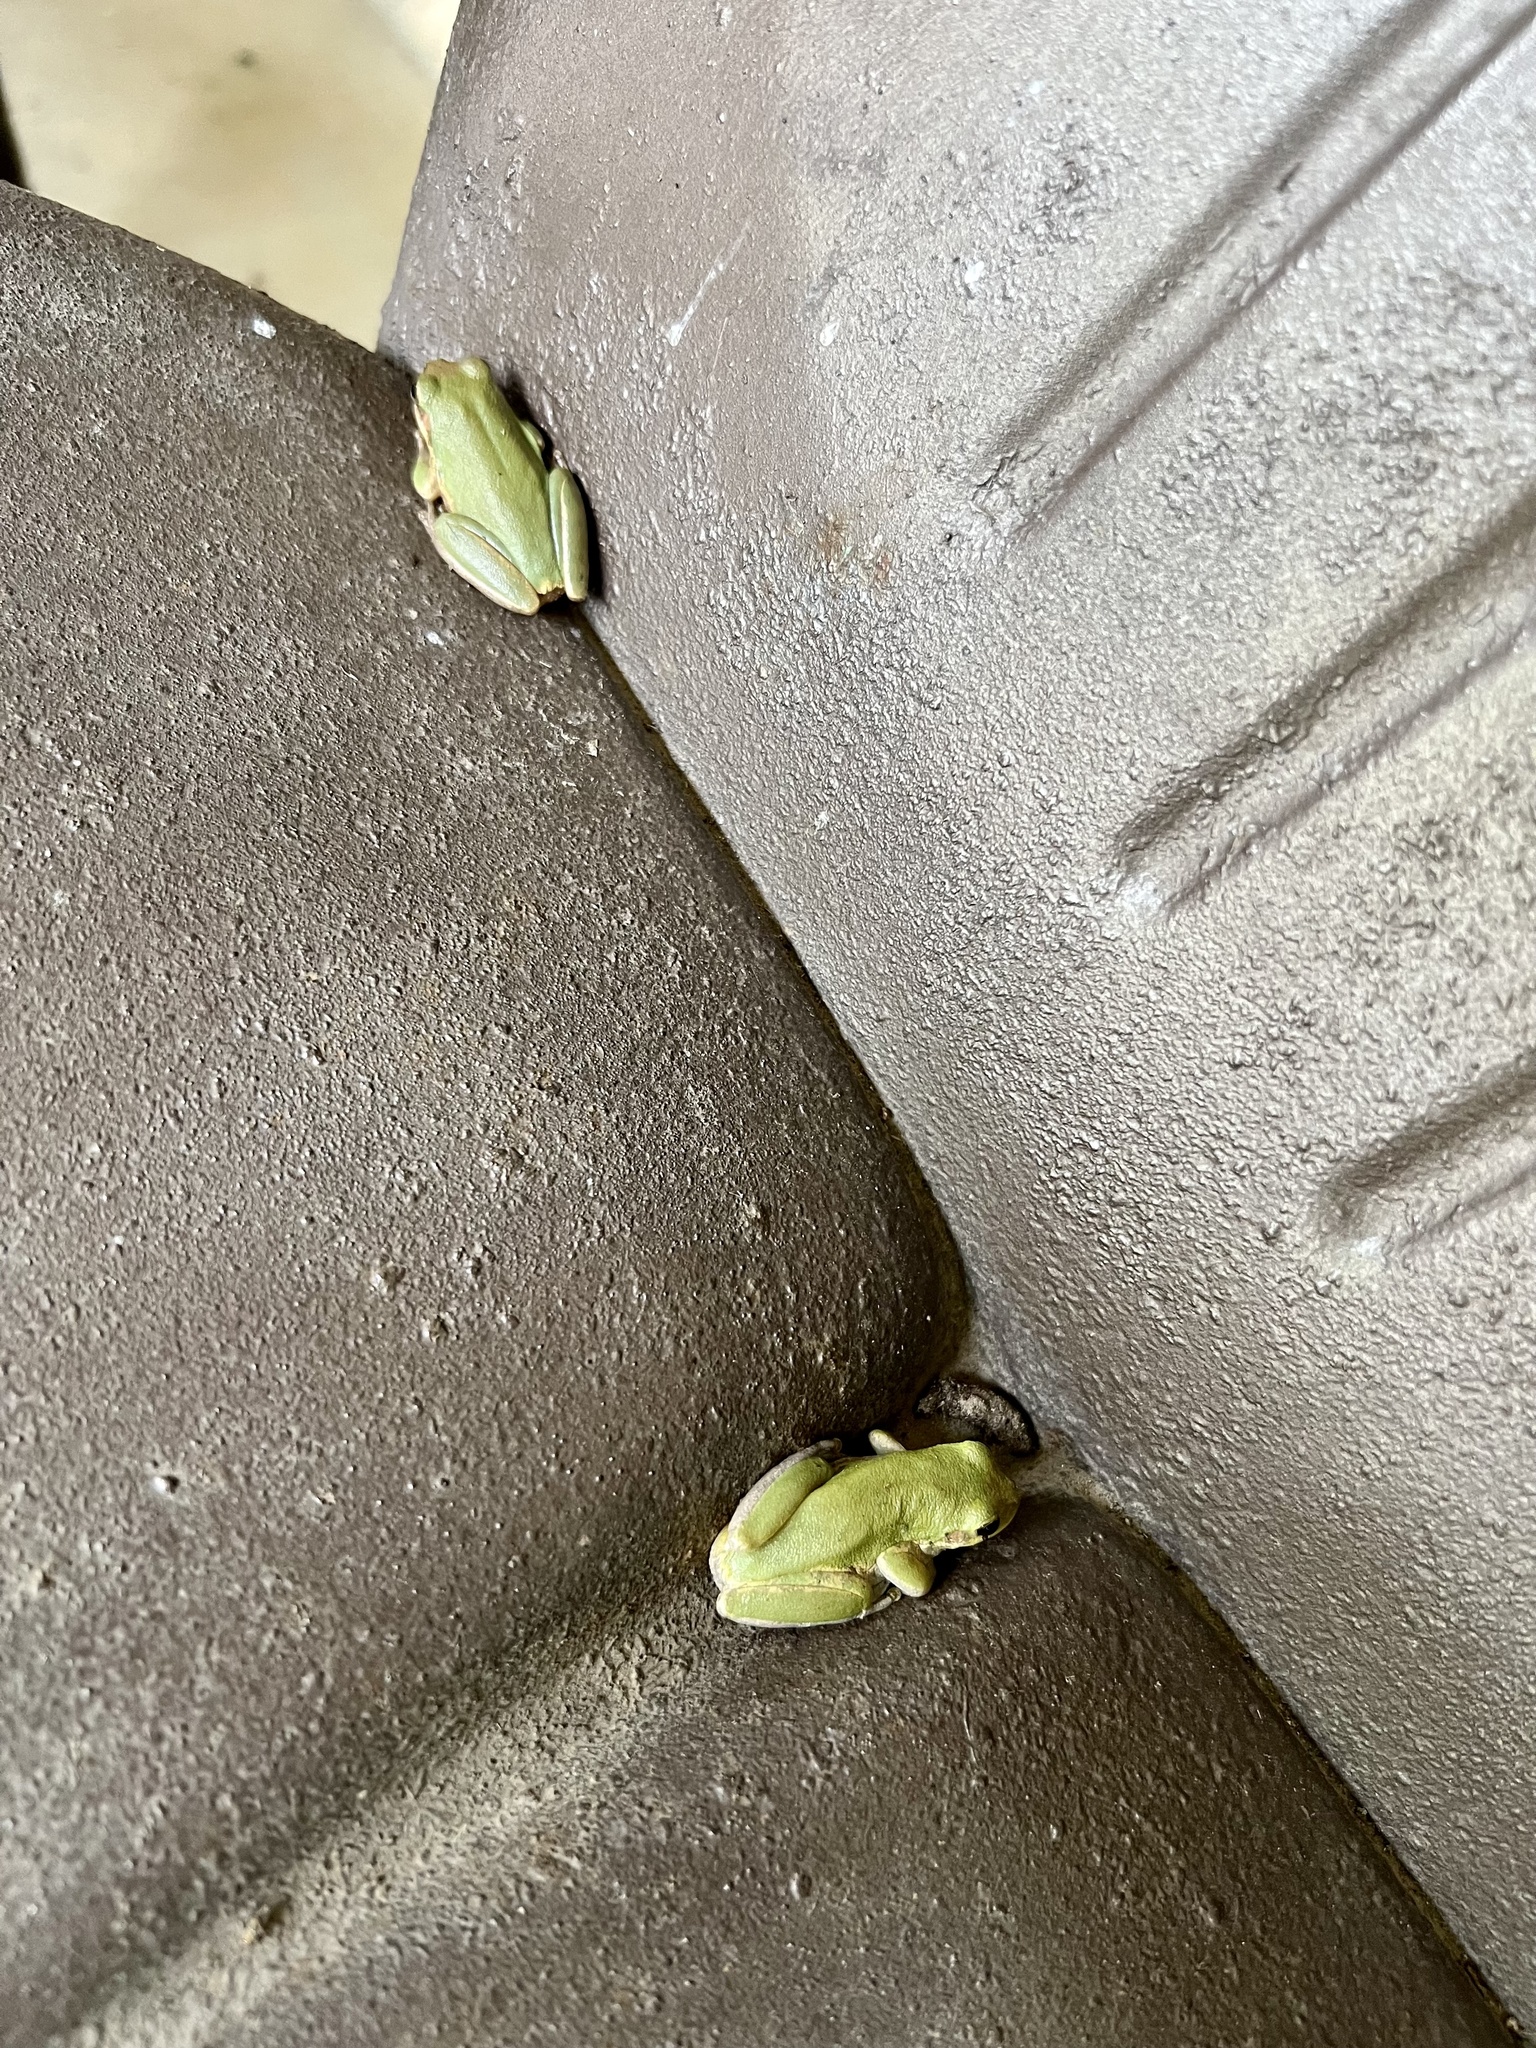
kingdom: Animalia
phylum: Chordata
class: Amphibia
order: Anura
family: Hylidae
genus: Dryophytes
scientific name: Dryophytes squirellus
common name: Squirrel treefrog
